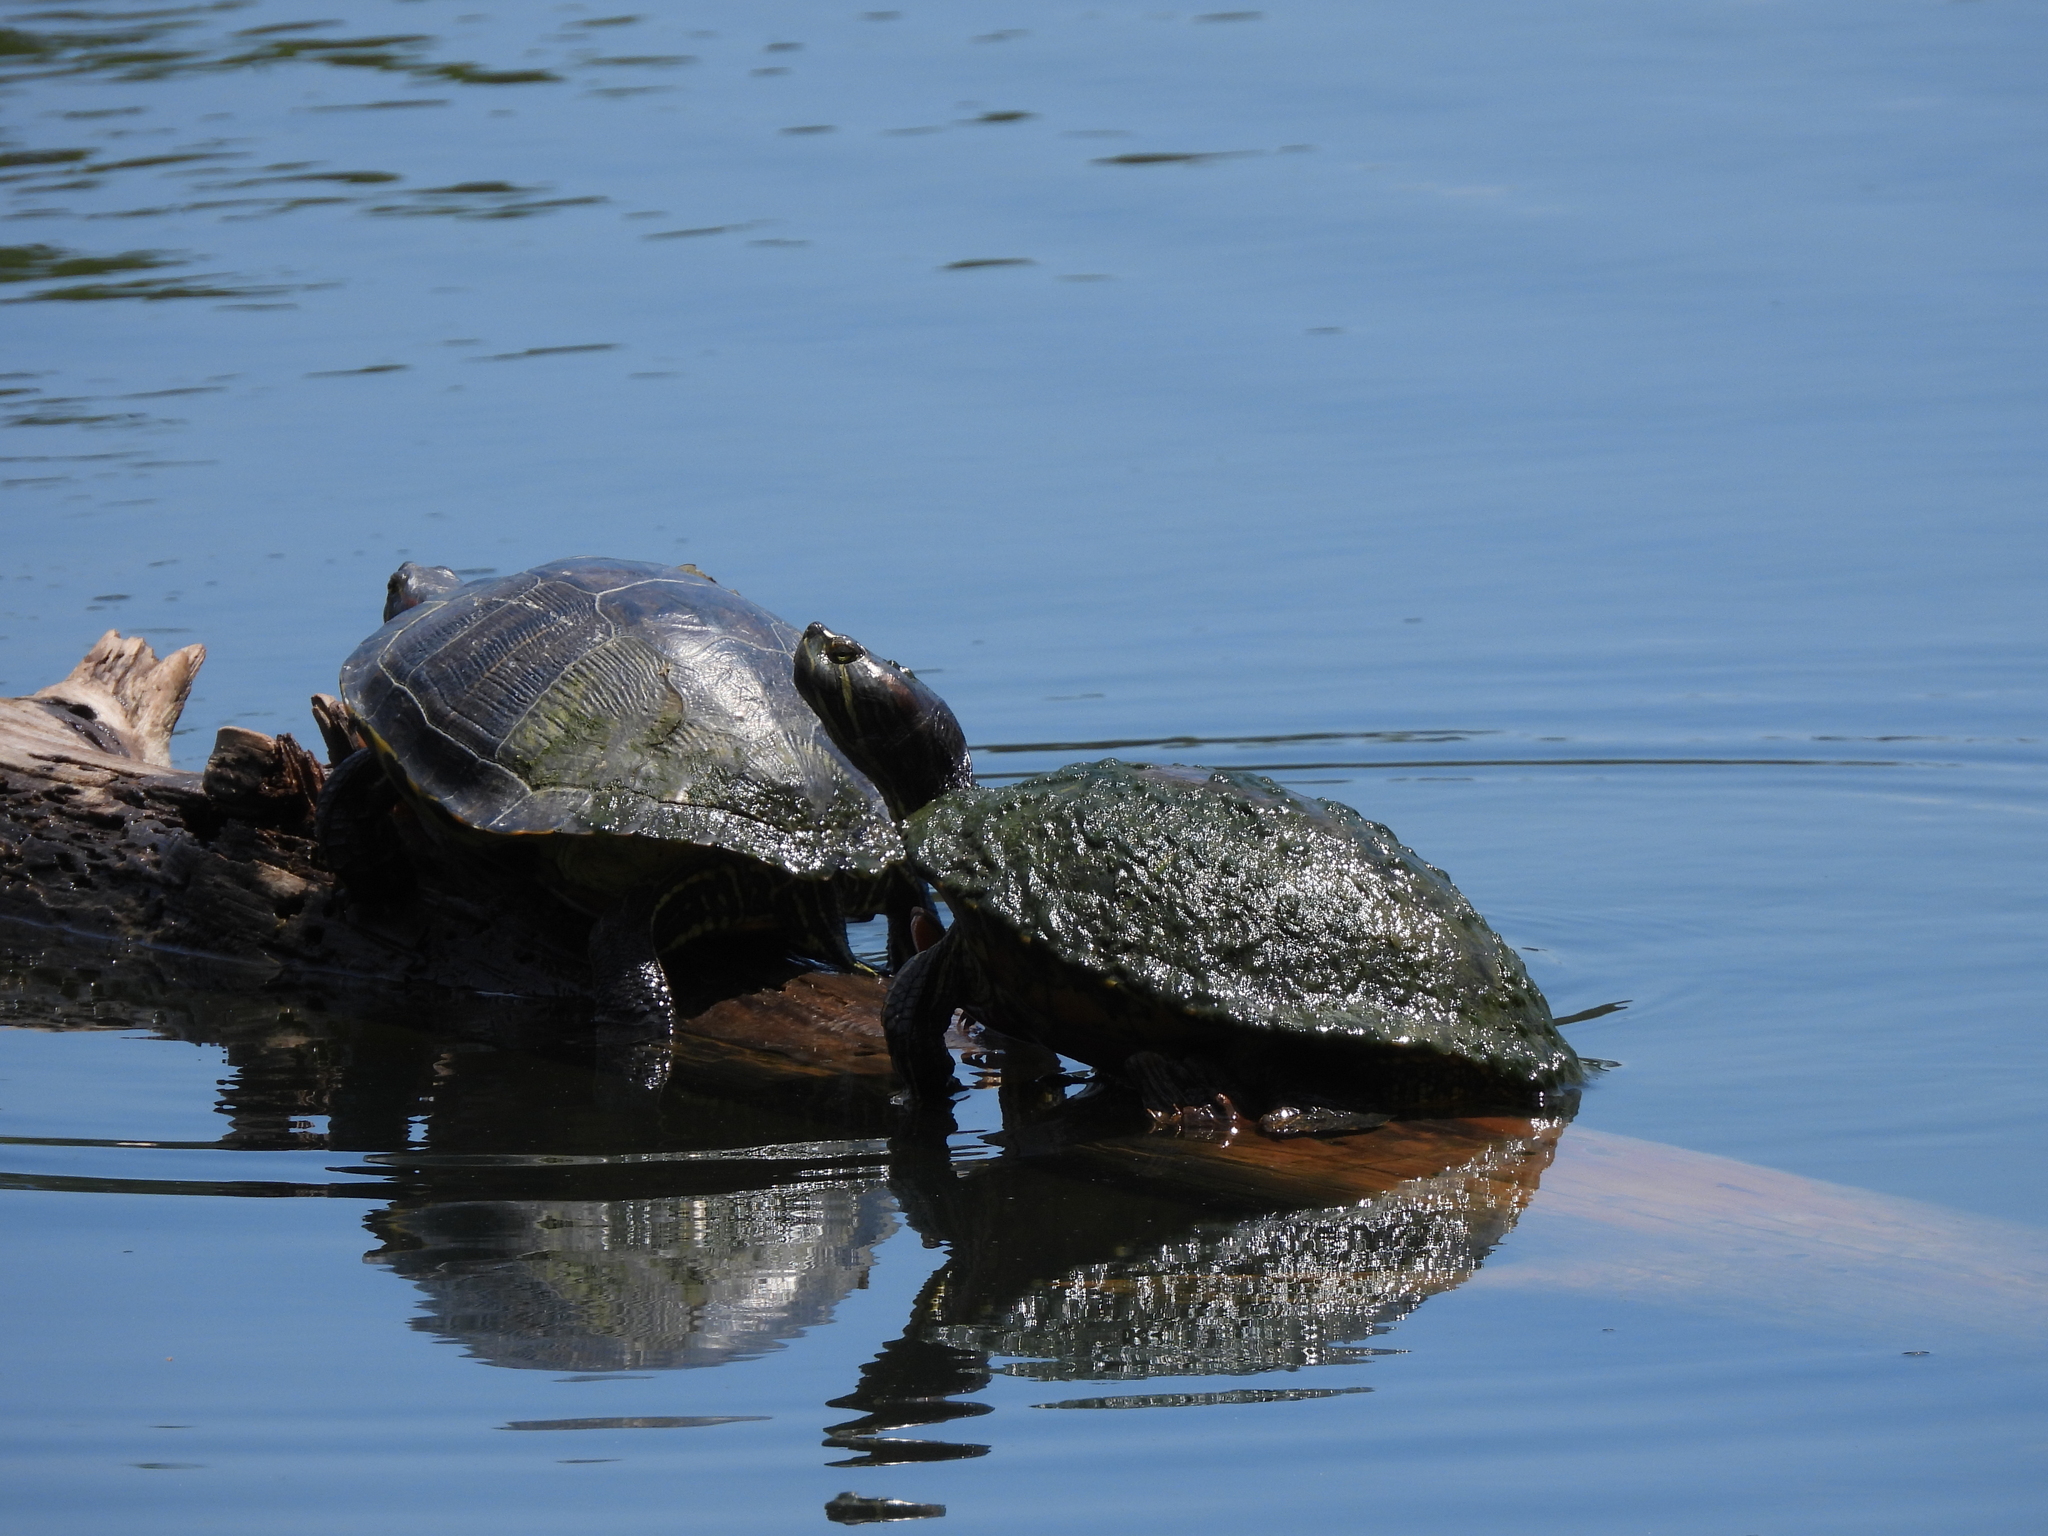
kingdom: Animalia
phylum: Chordata
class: Testudines
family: Emydidae
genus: Trachemys
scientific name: Trachemys scripta
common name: Slider
